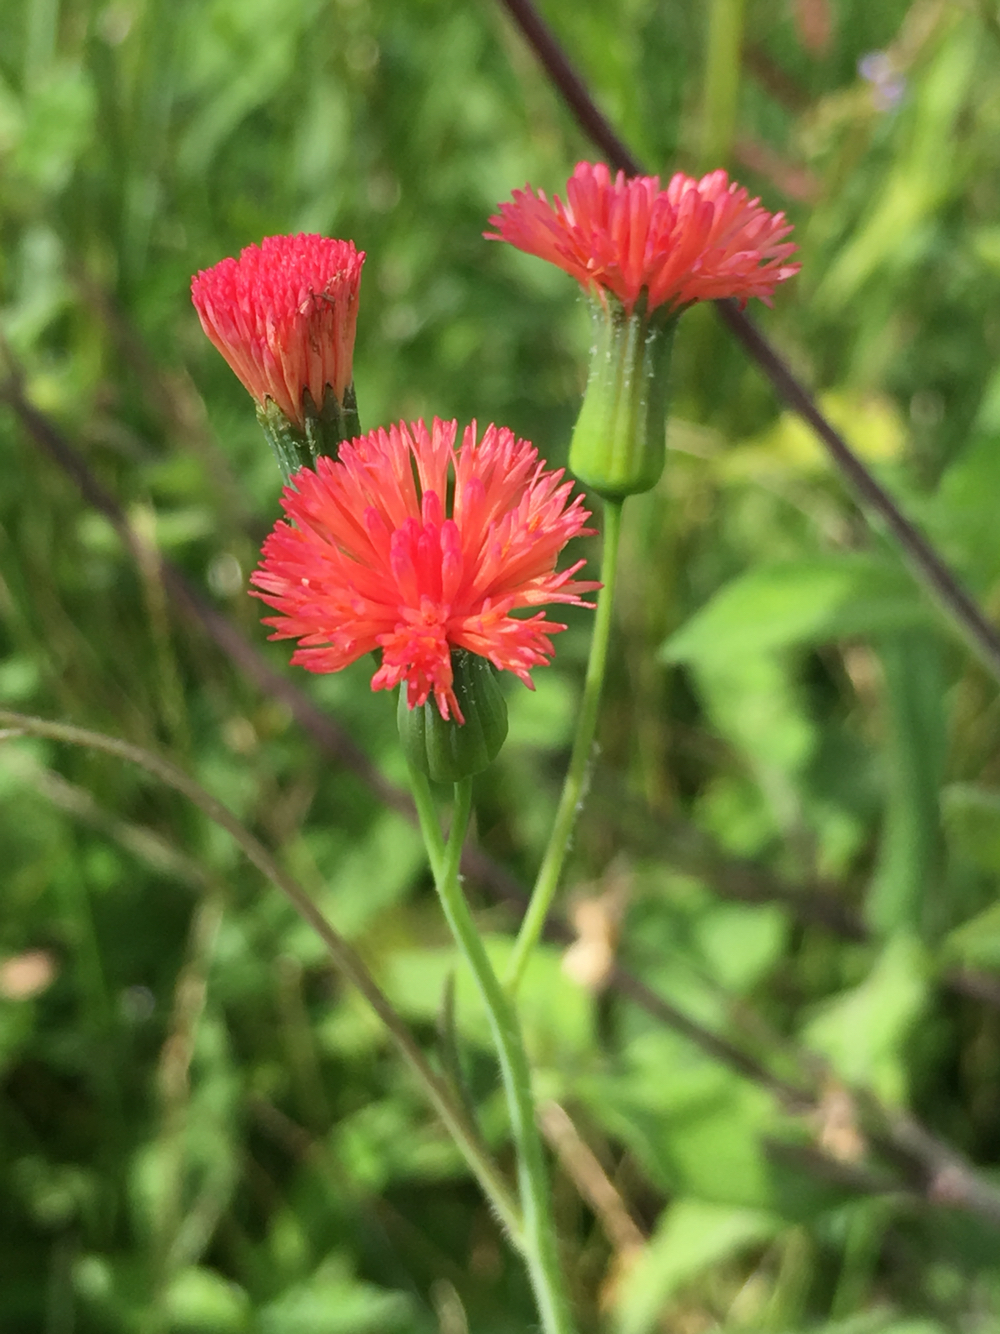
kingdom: Plantae
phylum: Tracheophyta
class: Magnoliopsida
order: Asterales
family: Asteraceae
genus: Emilia
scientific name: Emilia sonchifolia
